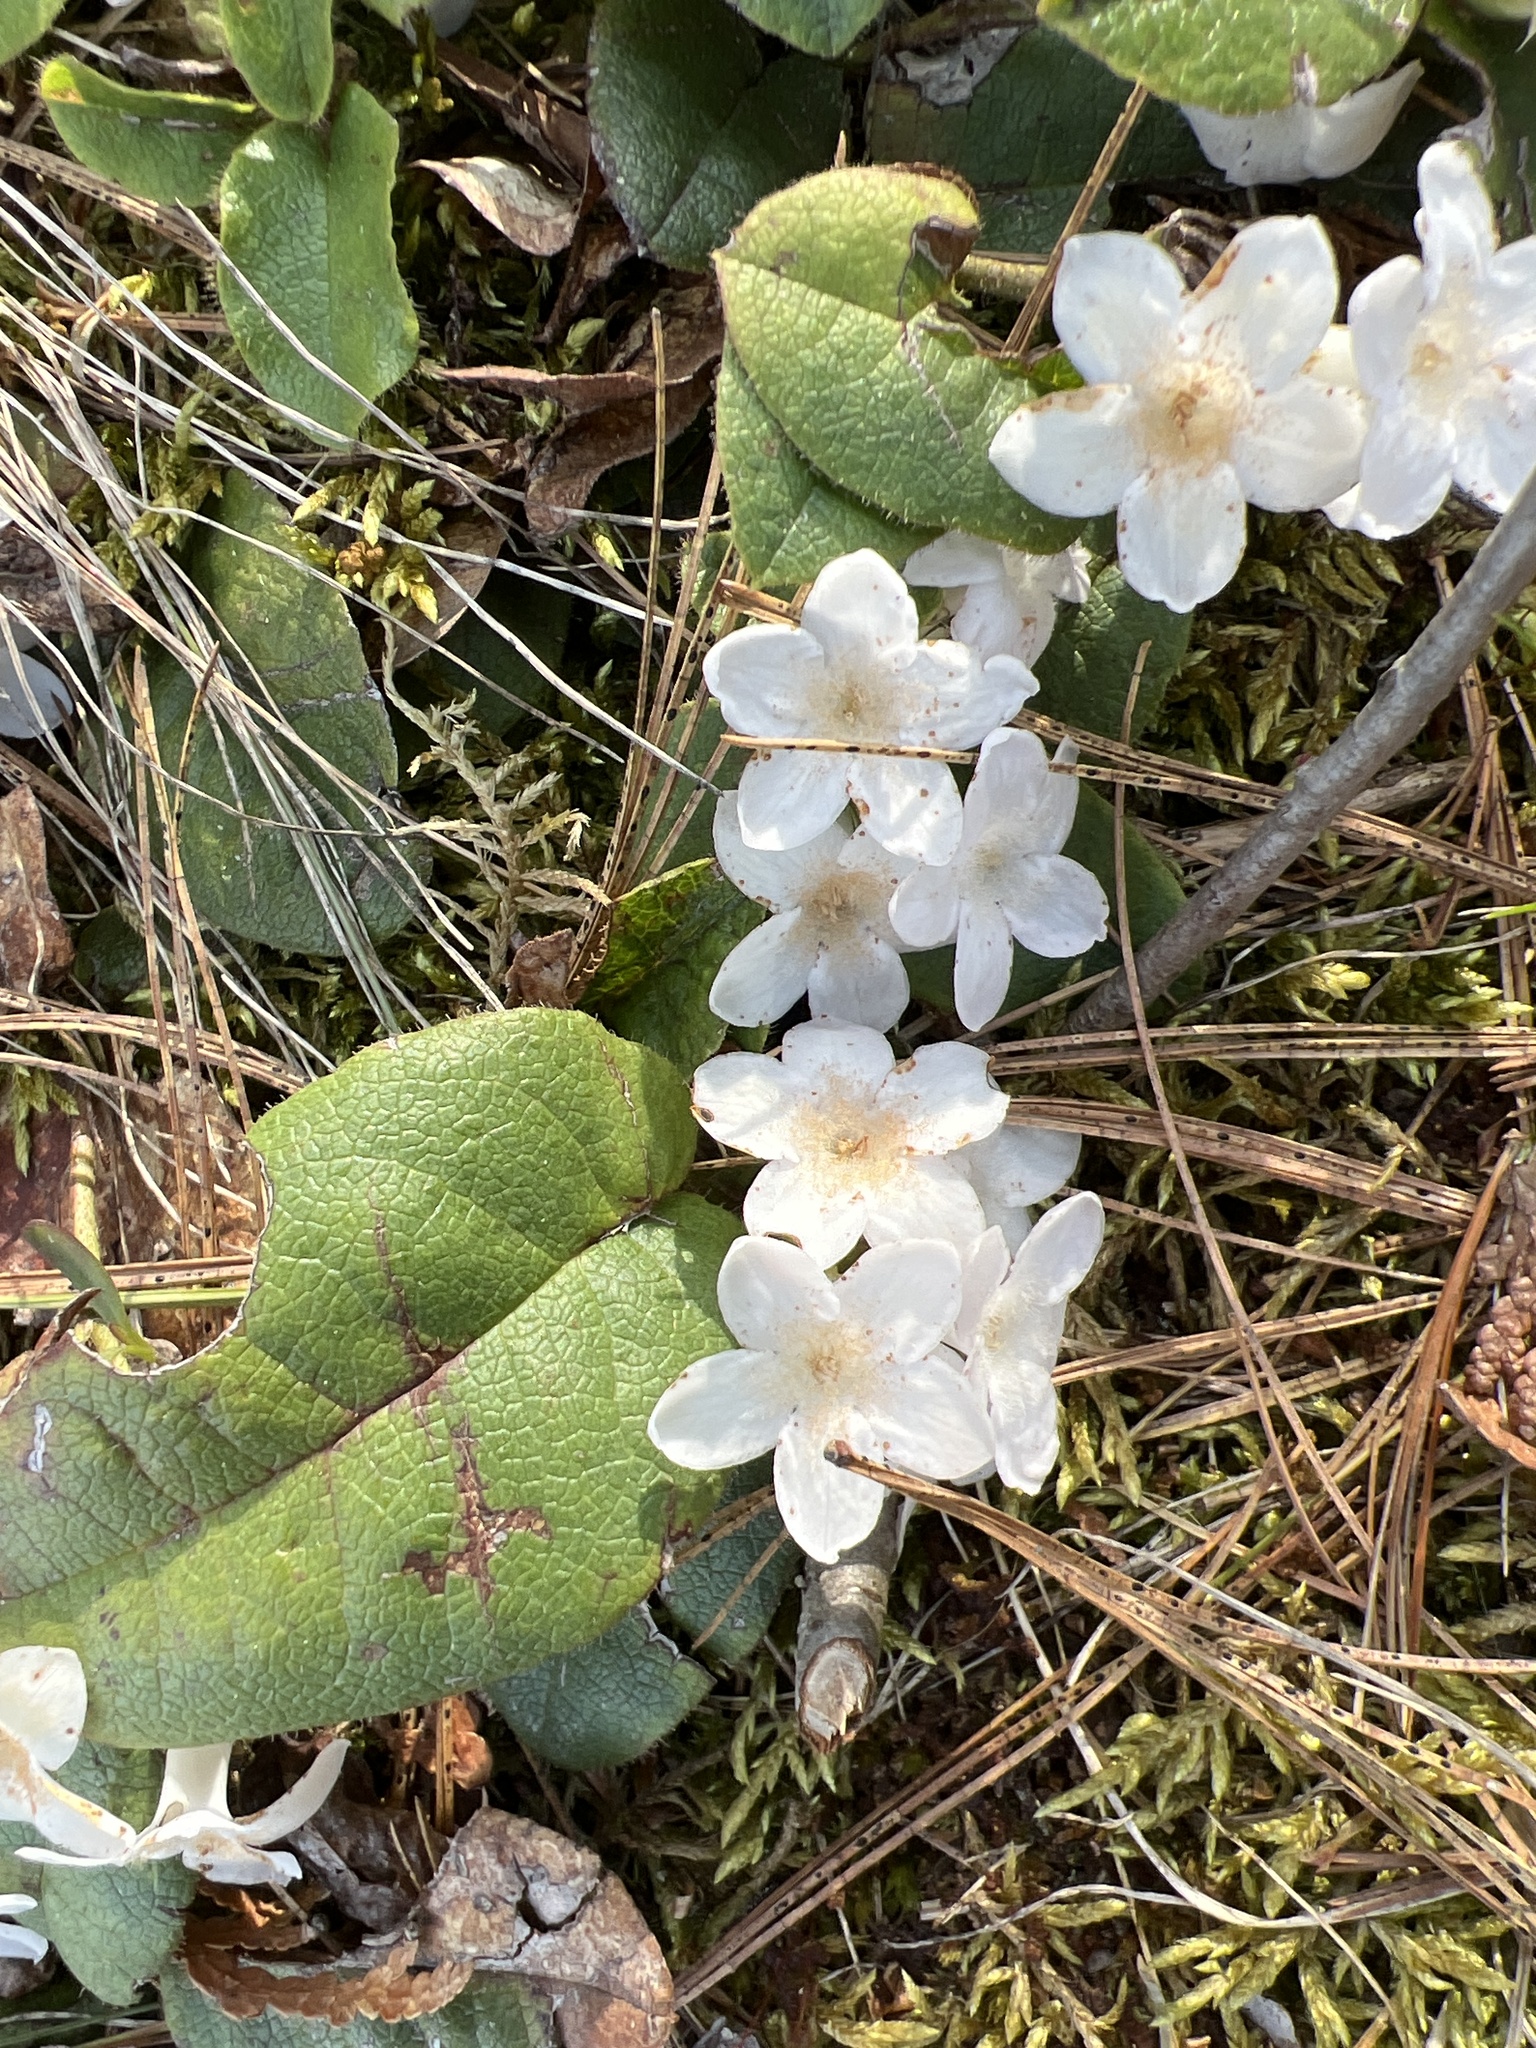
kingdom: Plantae
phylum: Tracheophyta
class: Magnoliopsida
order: Ericales
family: Ericaceae
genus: Epigaea
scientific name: Epigaea repens
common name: Gravelroot
